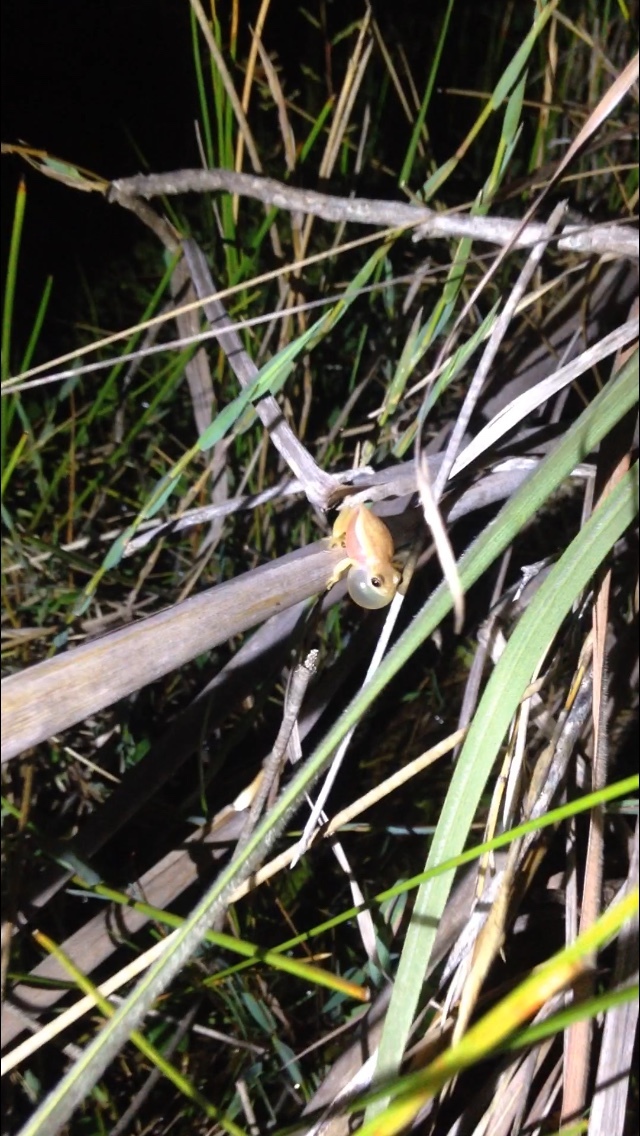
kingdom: Animalia
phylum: Chordata
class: Amphibia
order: Anura
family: Hylidae
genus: Dendropsophus
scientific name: Dendropsophus nanus
